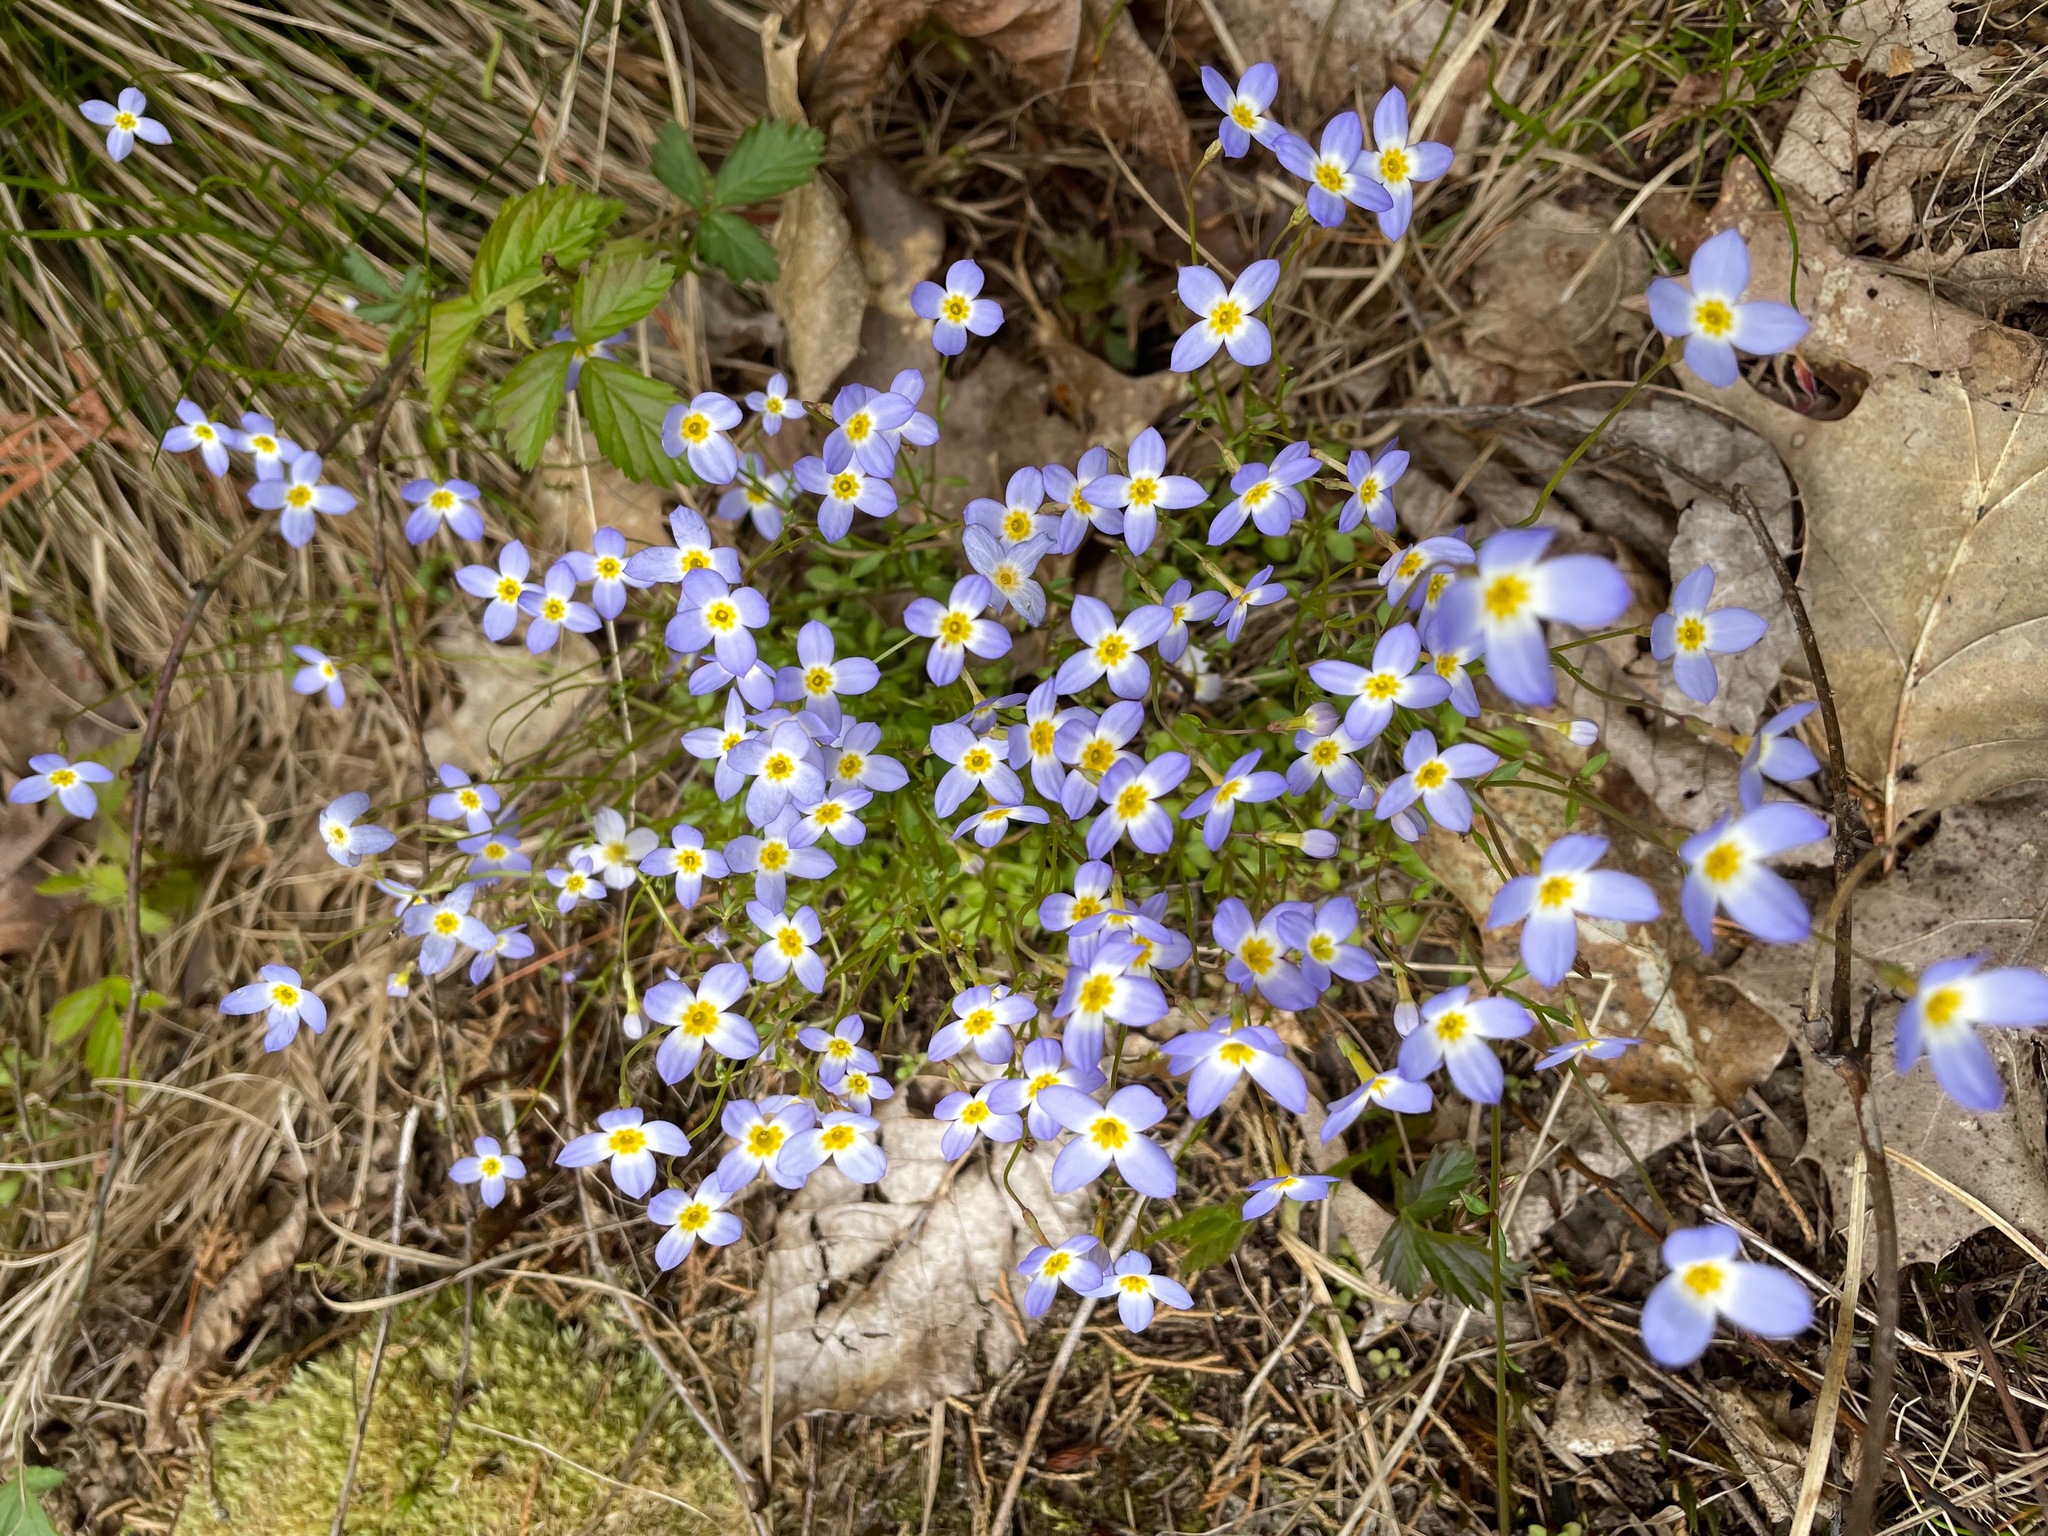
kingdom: Plantae
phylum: Tracheophyta
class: Magnoliopsida
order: Gentianales
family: Rubiaceae
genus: Houstonia
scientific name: Houstonia caerulea
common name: Bluets
